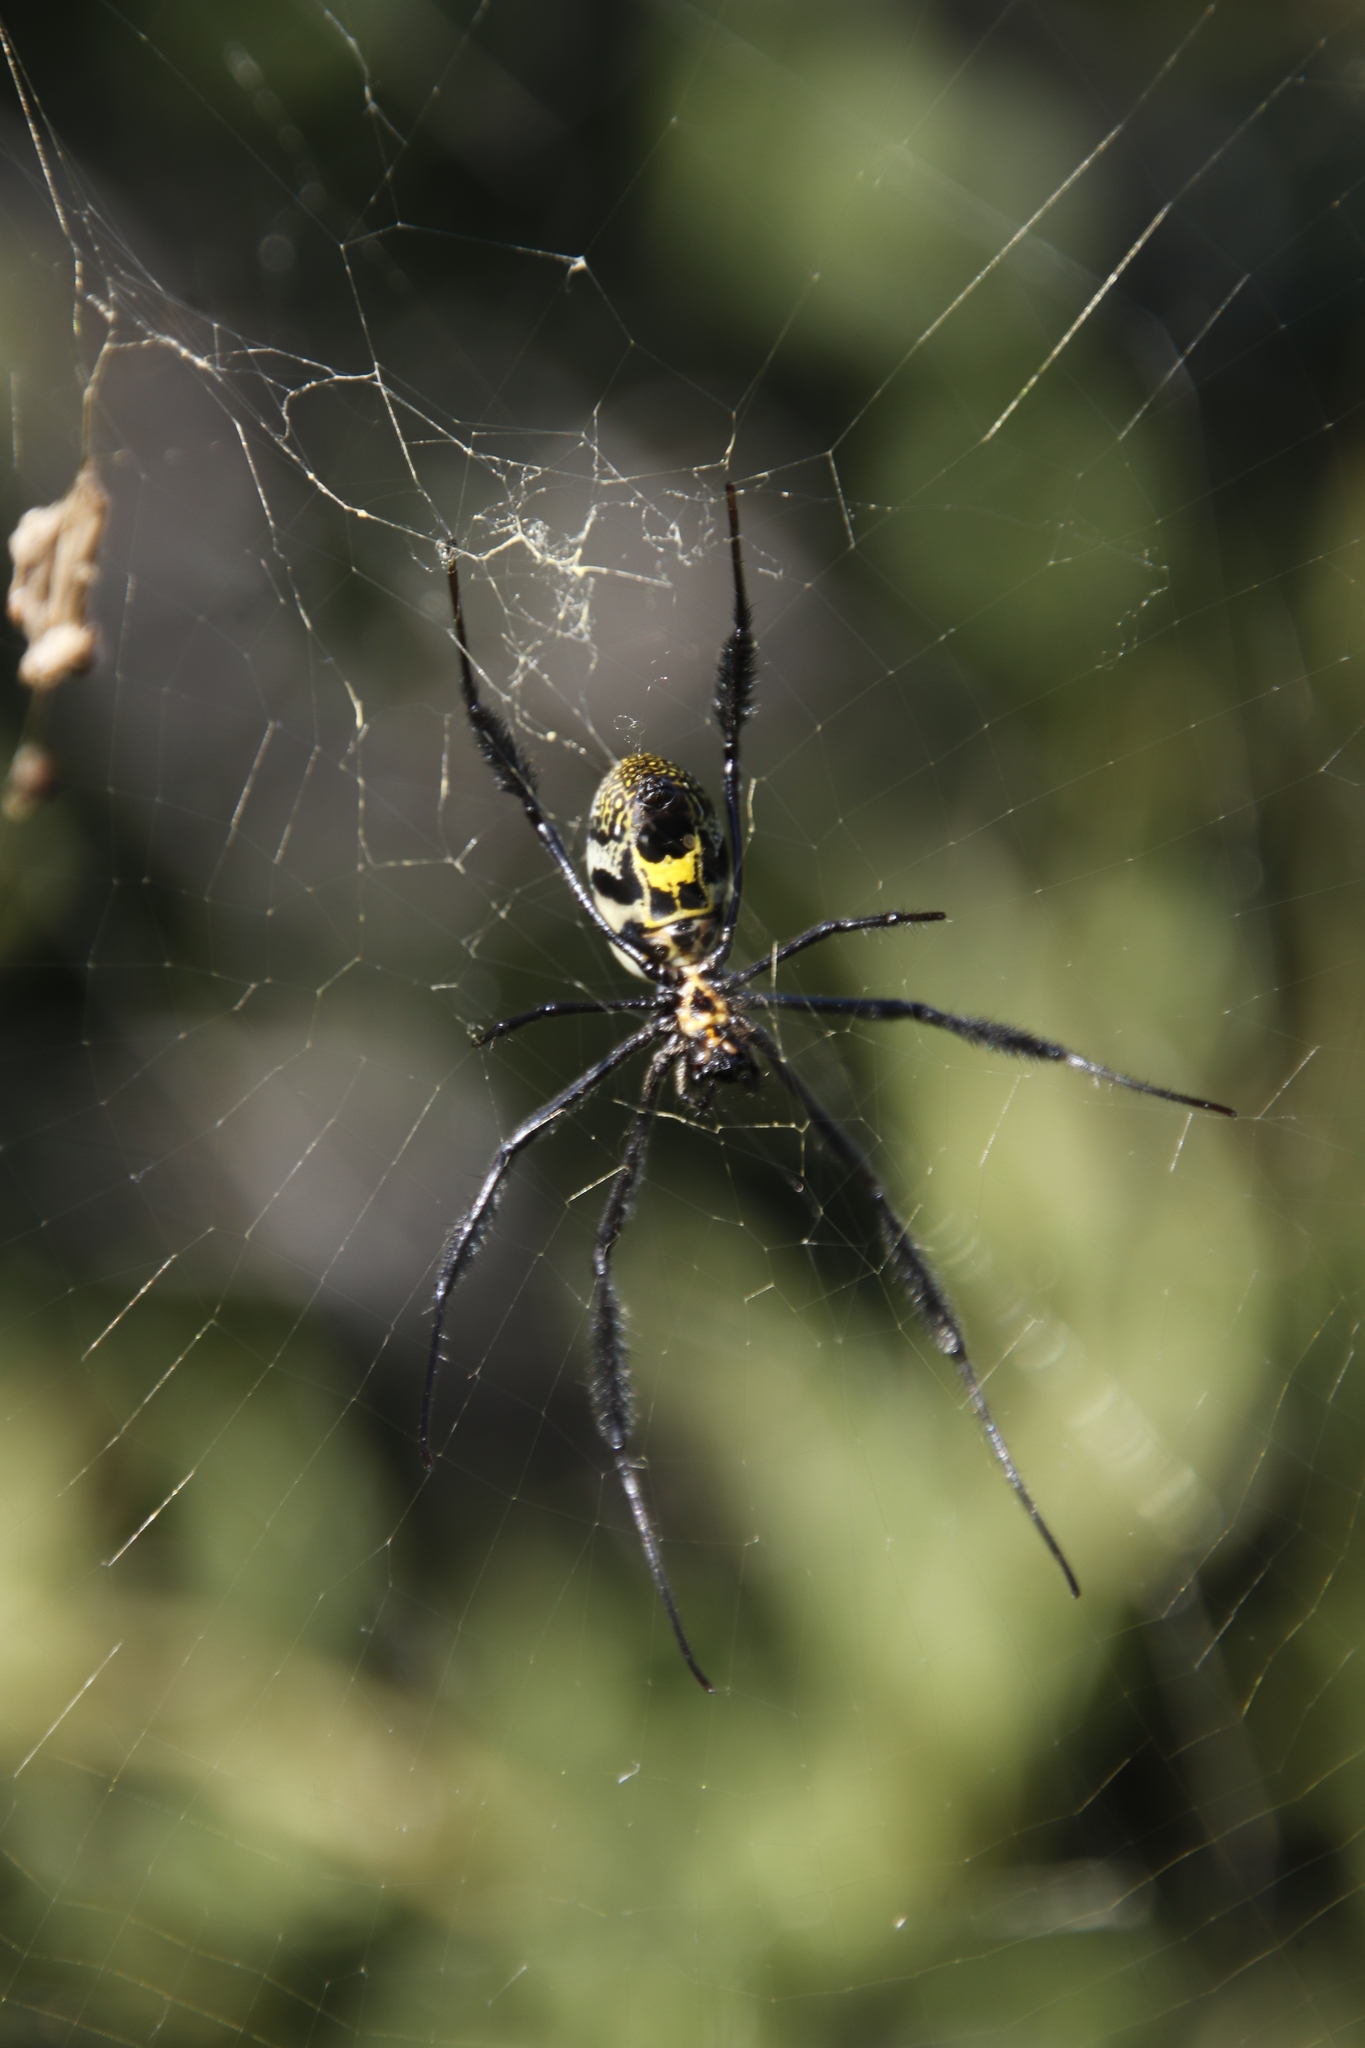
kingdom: Animalia
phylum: Arthropoda
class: Arachnida
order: Araneae
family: Araneidae
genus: Trichonephila
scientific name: Trichonephila fenestrata
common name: Hairy golden orb weaver
